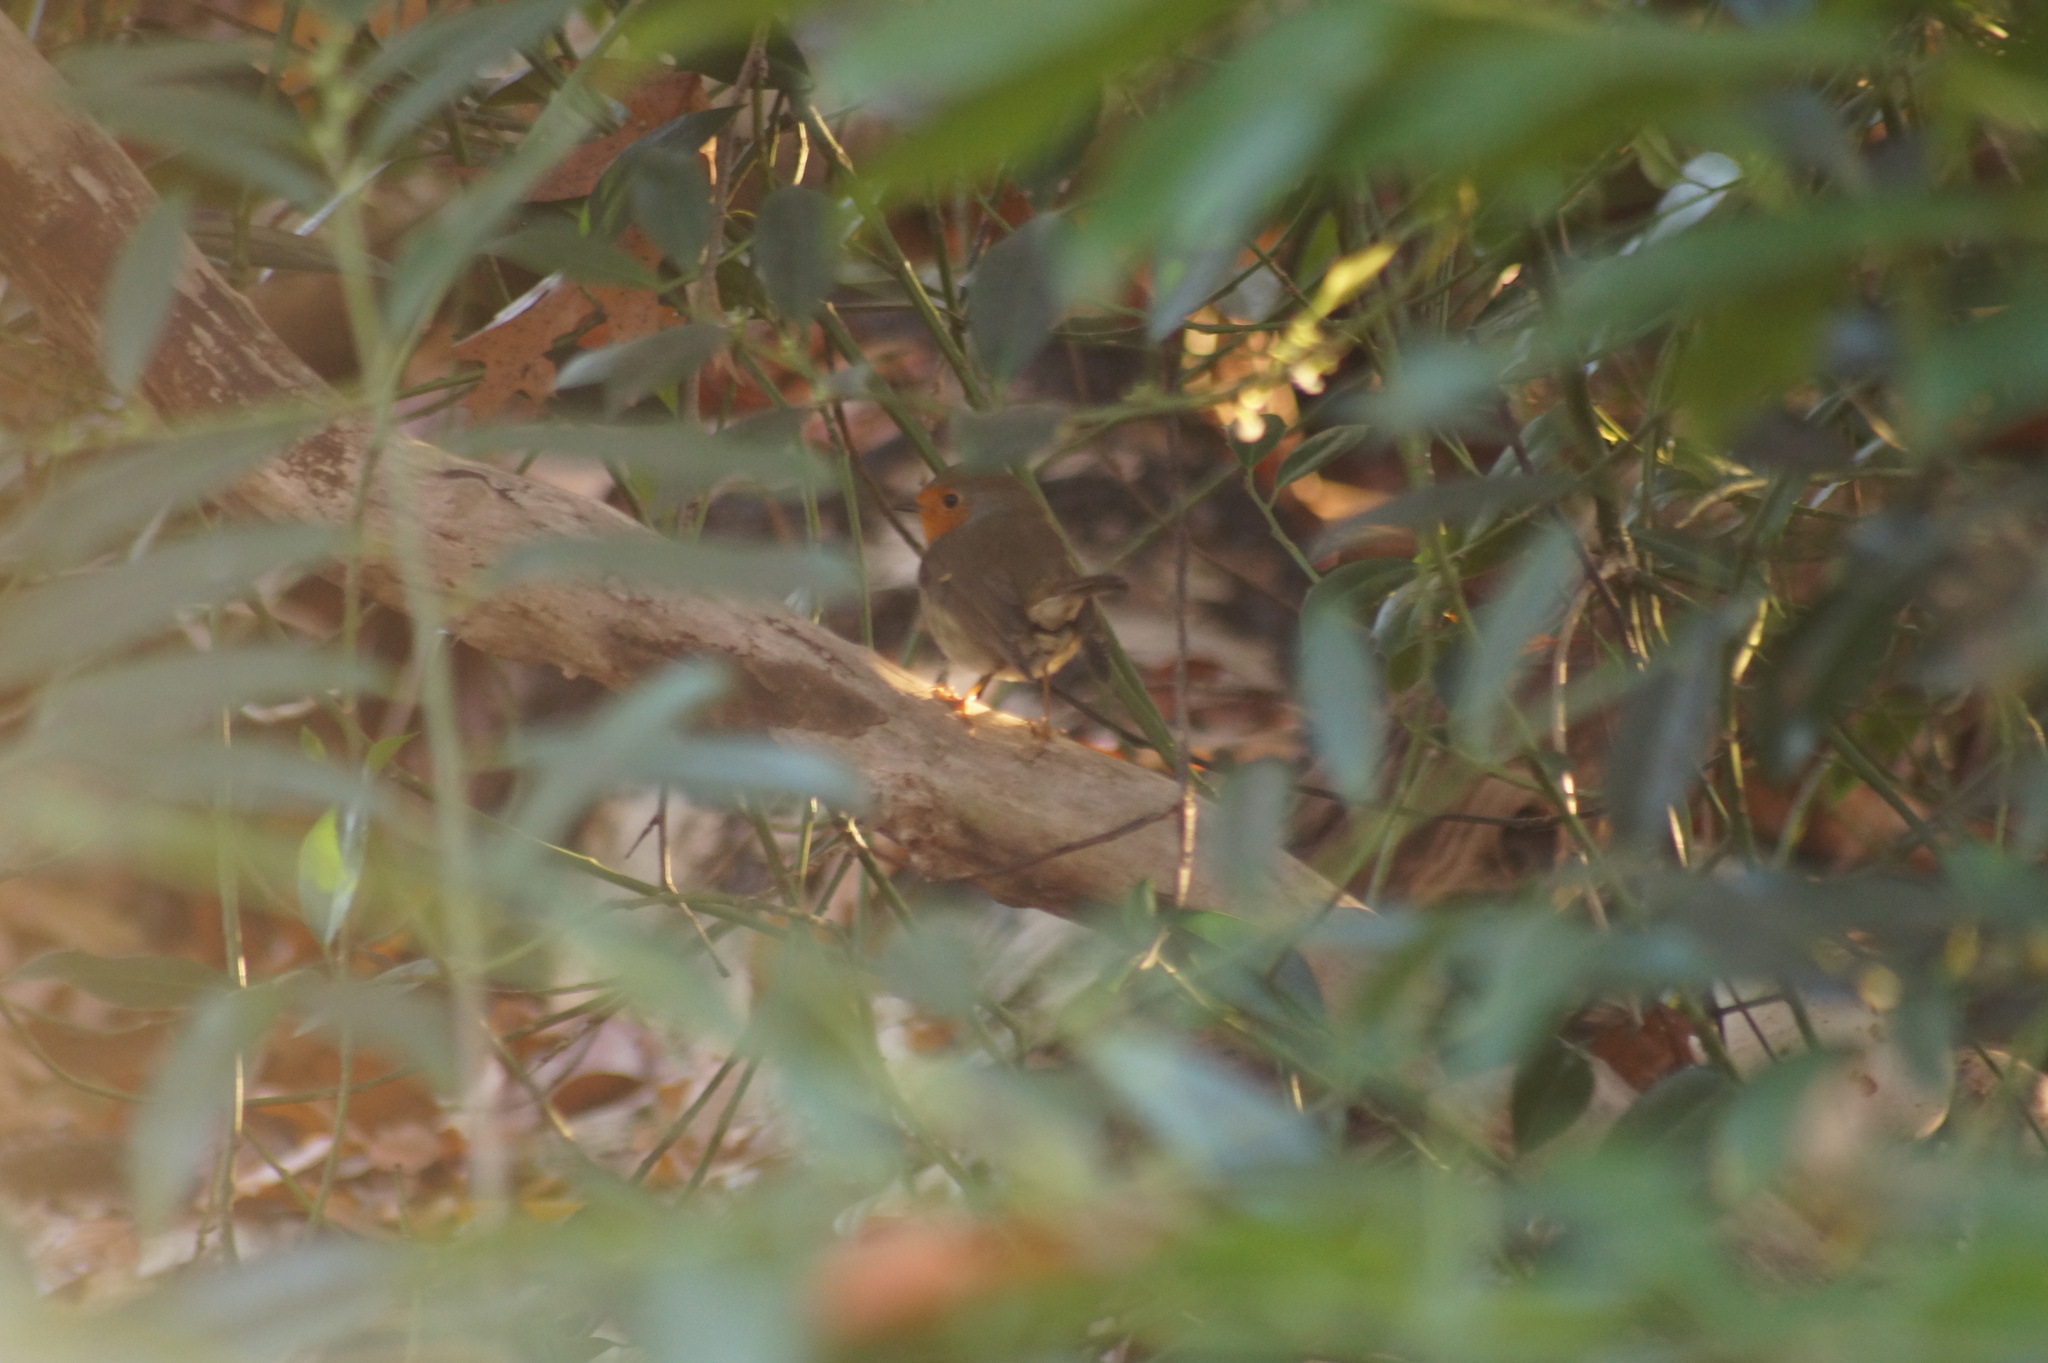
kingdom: Animalia
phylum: Chordata
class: Aves
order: Passeriformes
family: Muscicapidae
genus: Erithacus
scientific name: Erithacus rubecula
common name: European robin
